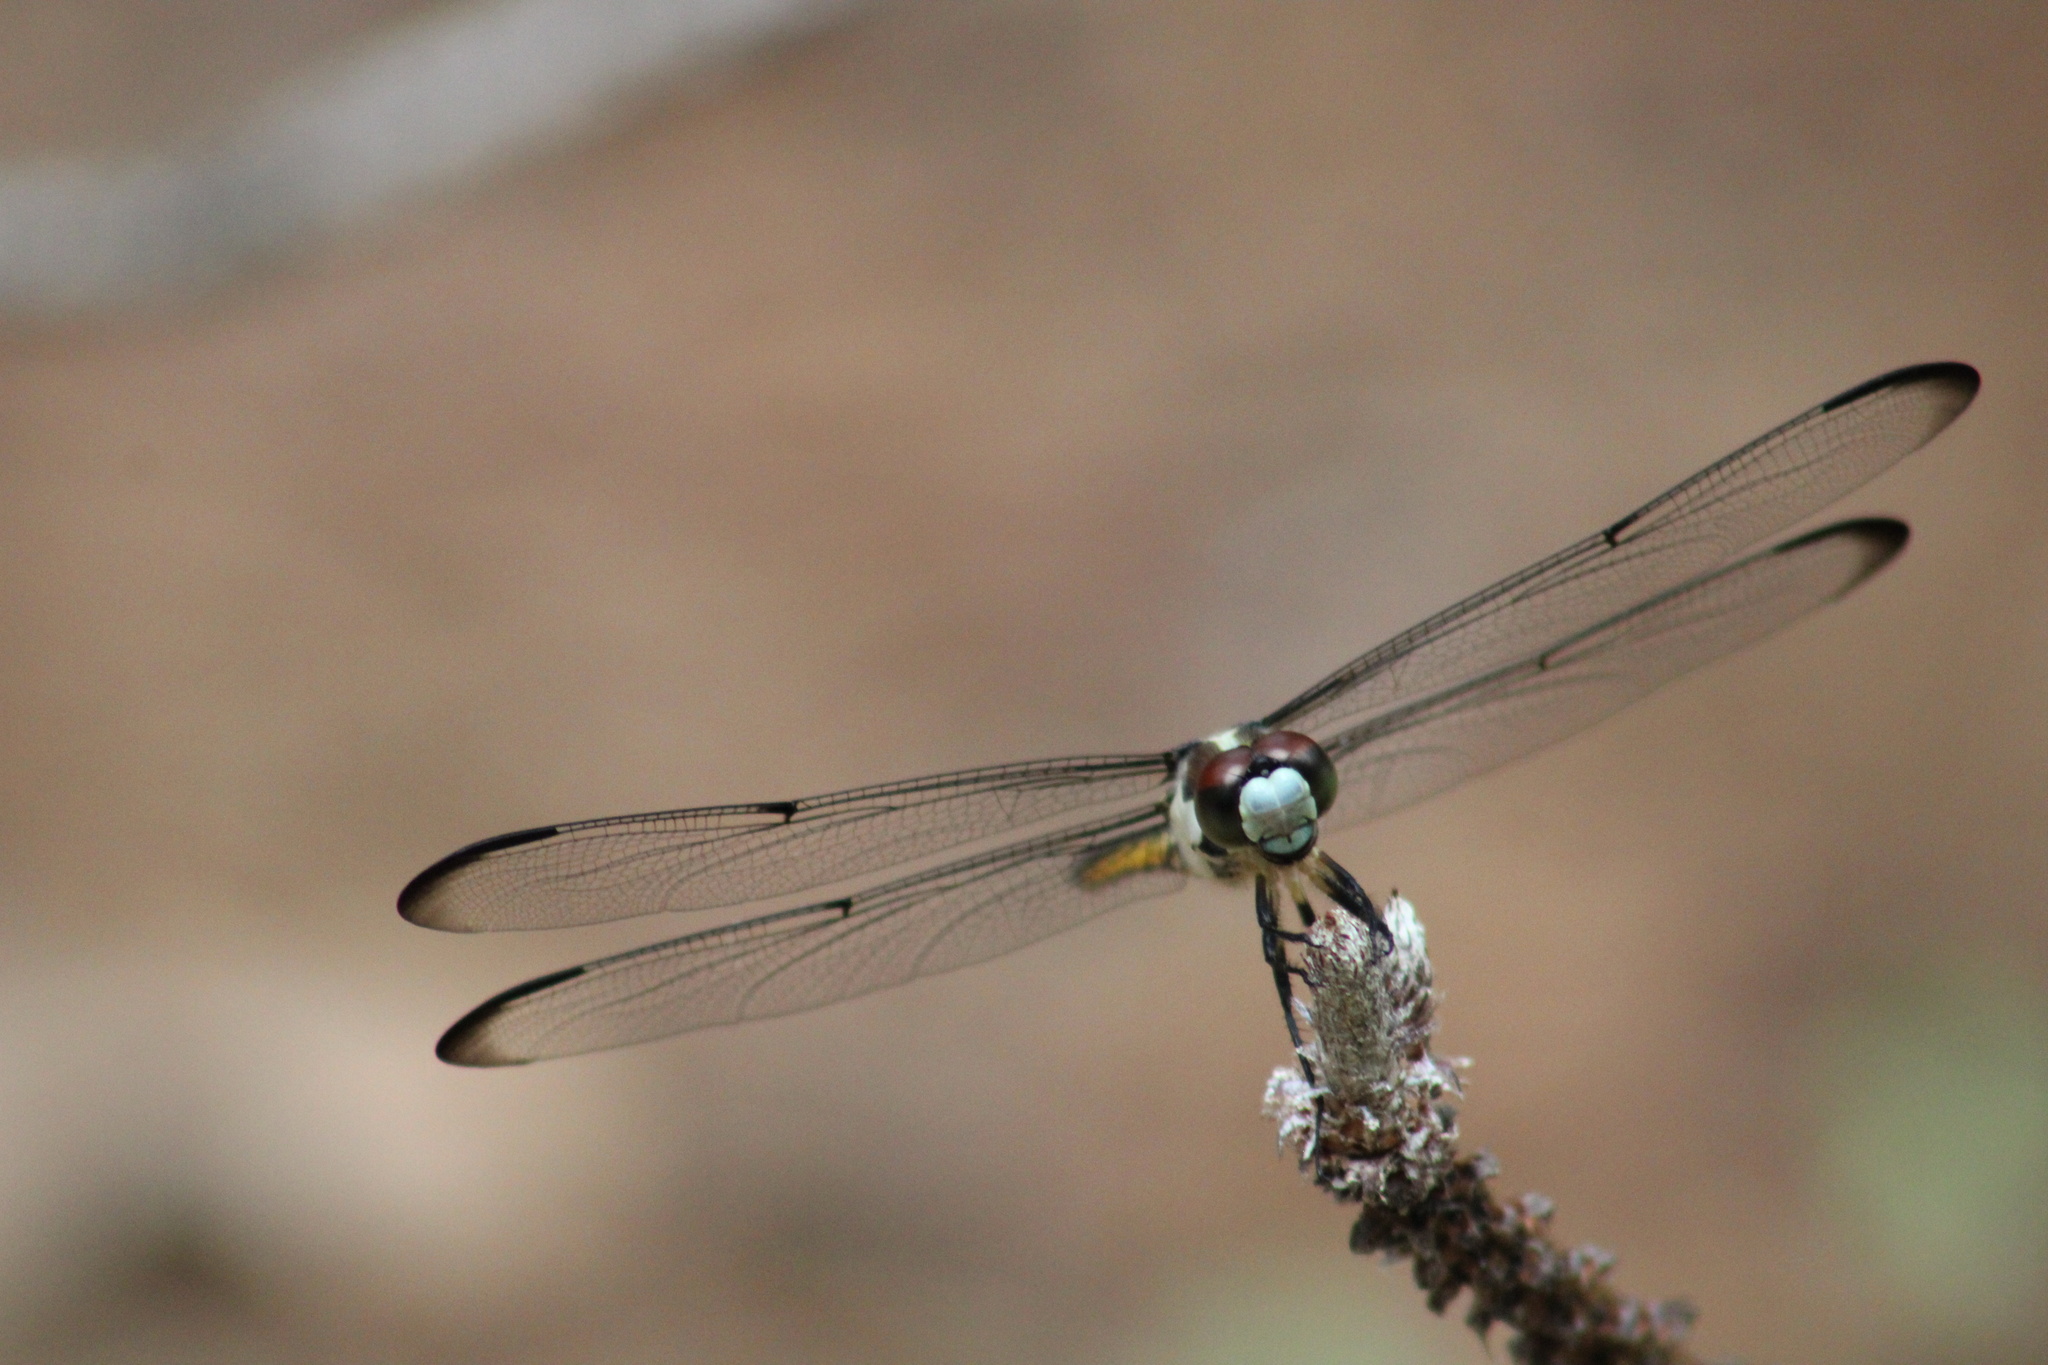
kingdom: Animalia
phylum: Arthropoda
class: Insecta
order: Odonata
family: Libellulidae
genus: Libellula
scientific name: Libellula vibrans
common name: Great blue skimmer
